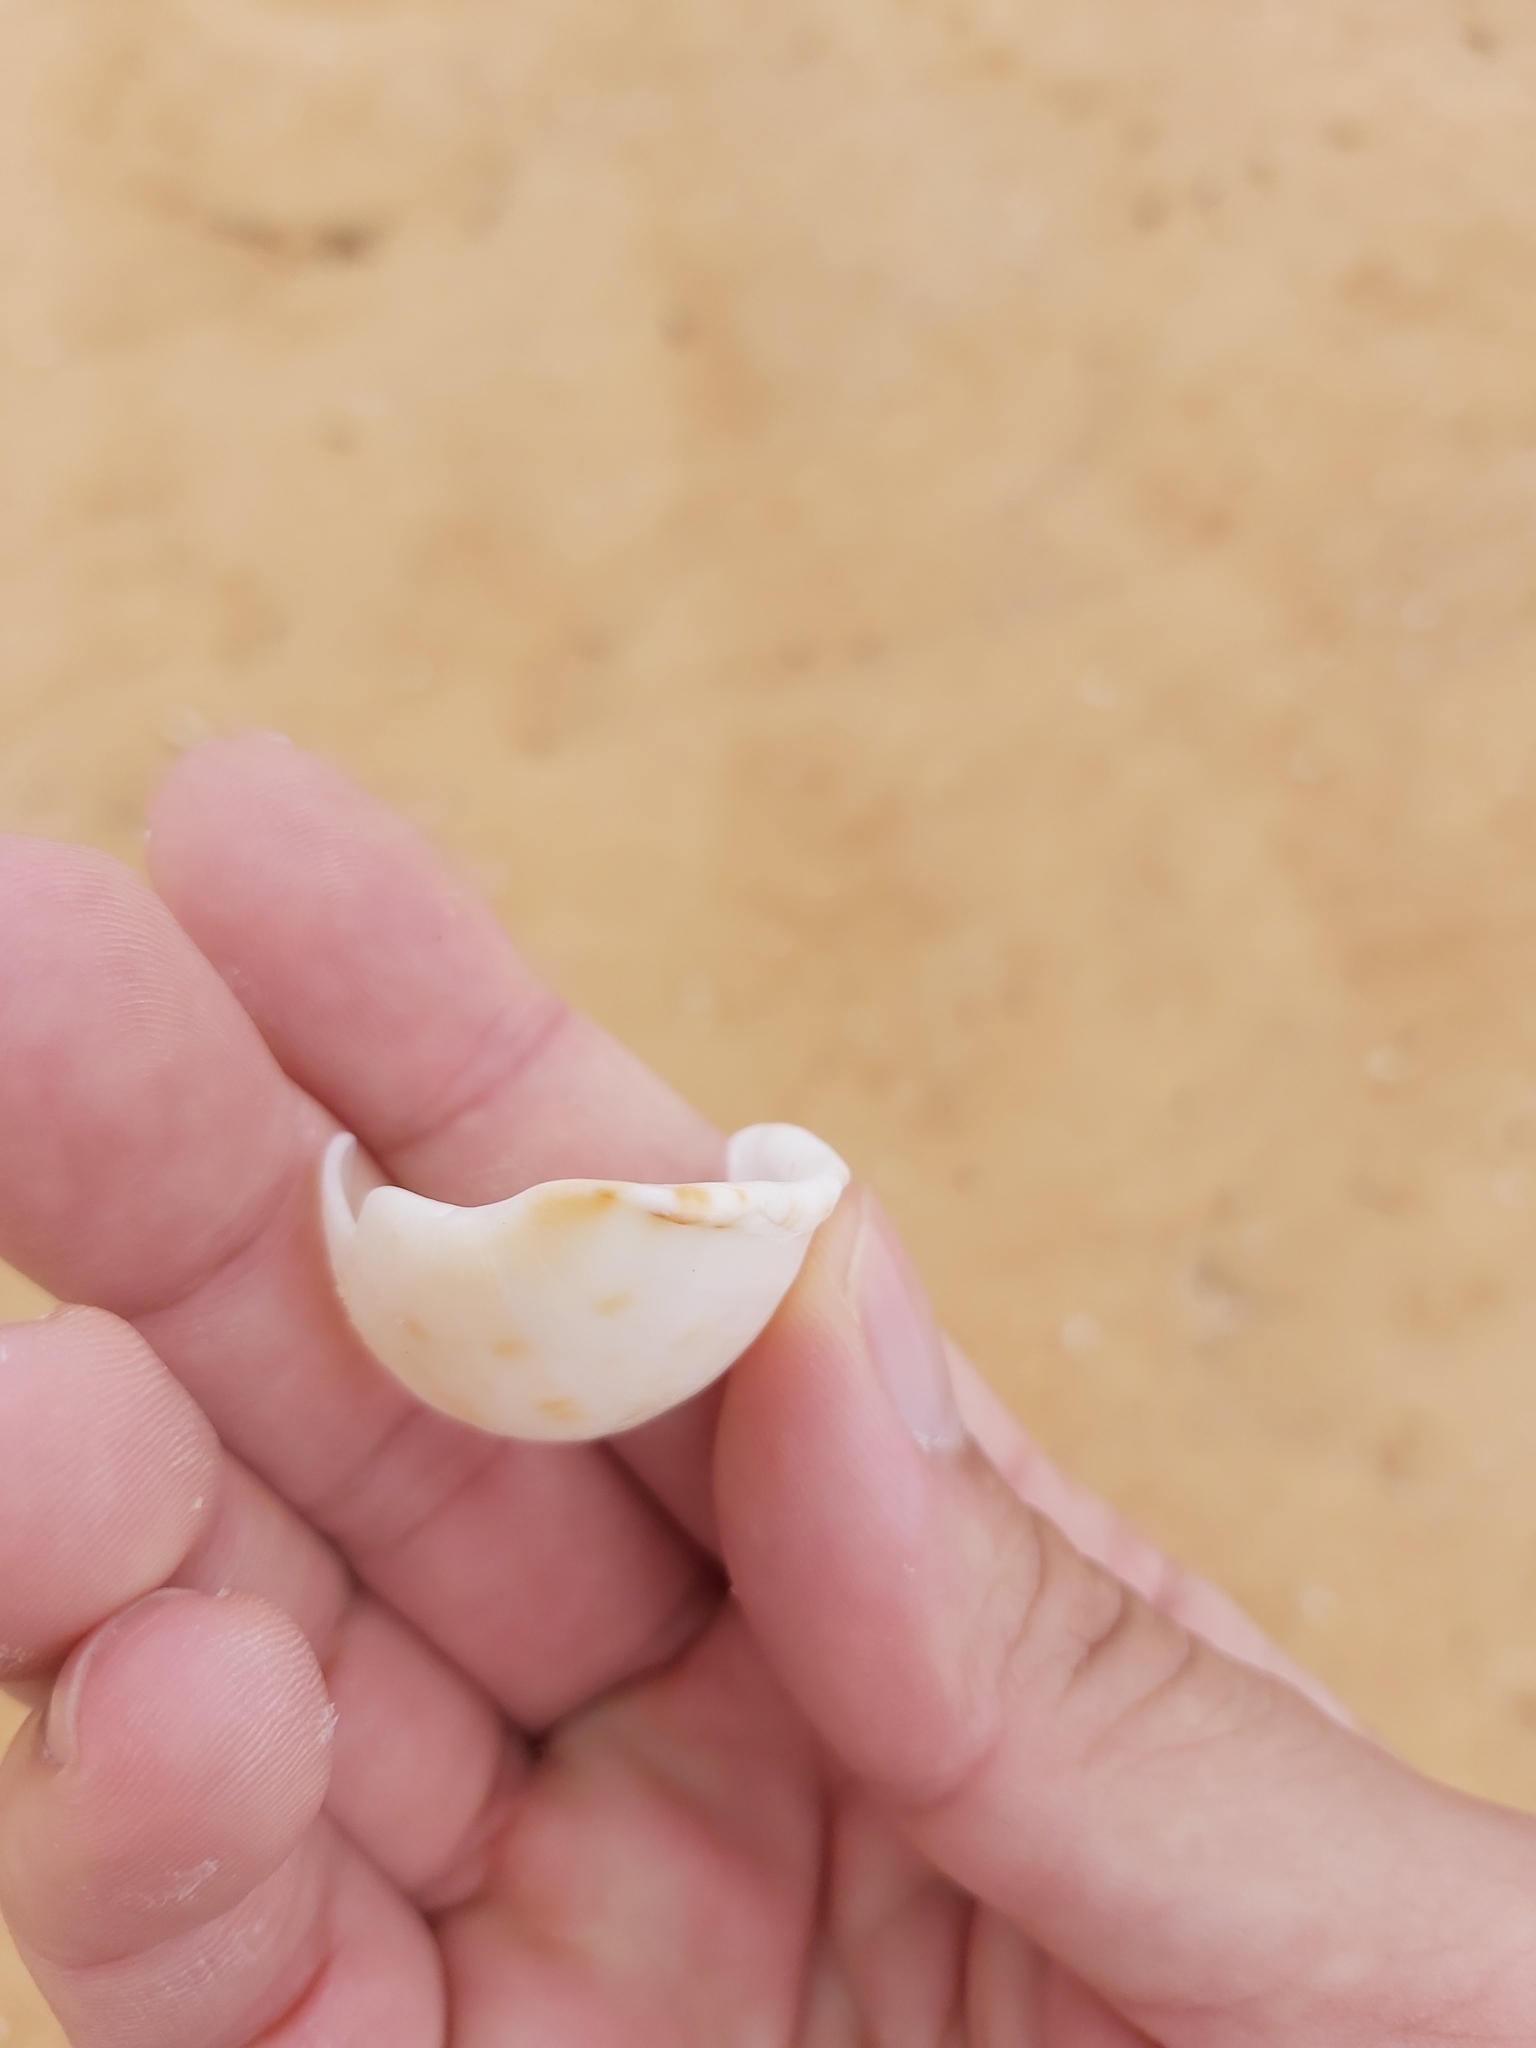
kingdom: Animalia
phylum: Mollusca
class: Gastropoda
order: Littorinimorpha
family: Cassidae
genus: Semicassis
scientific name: Semicassis labiata
